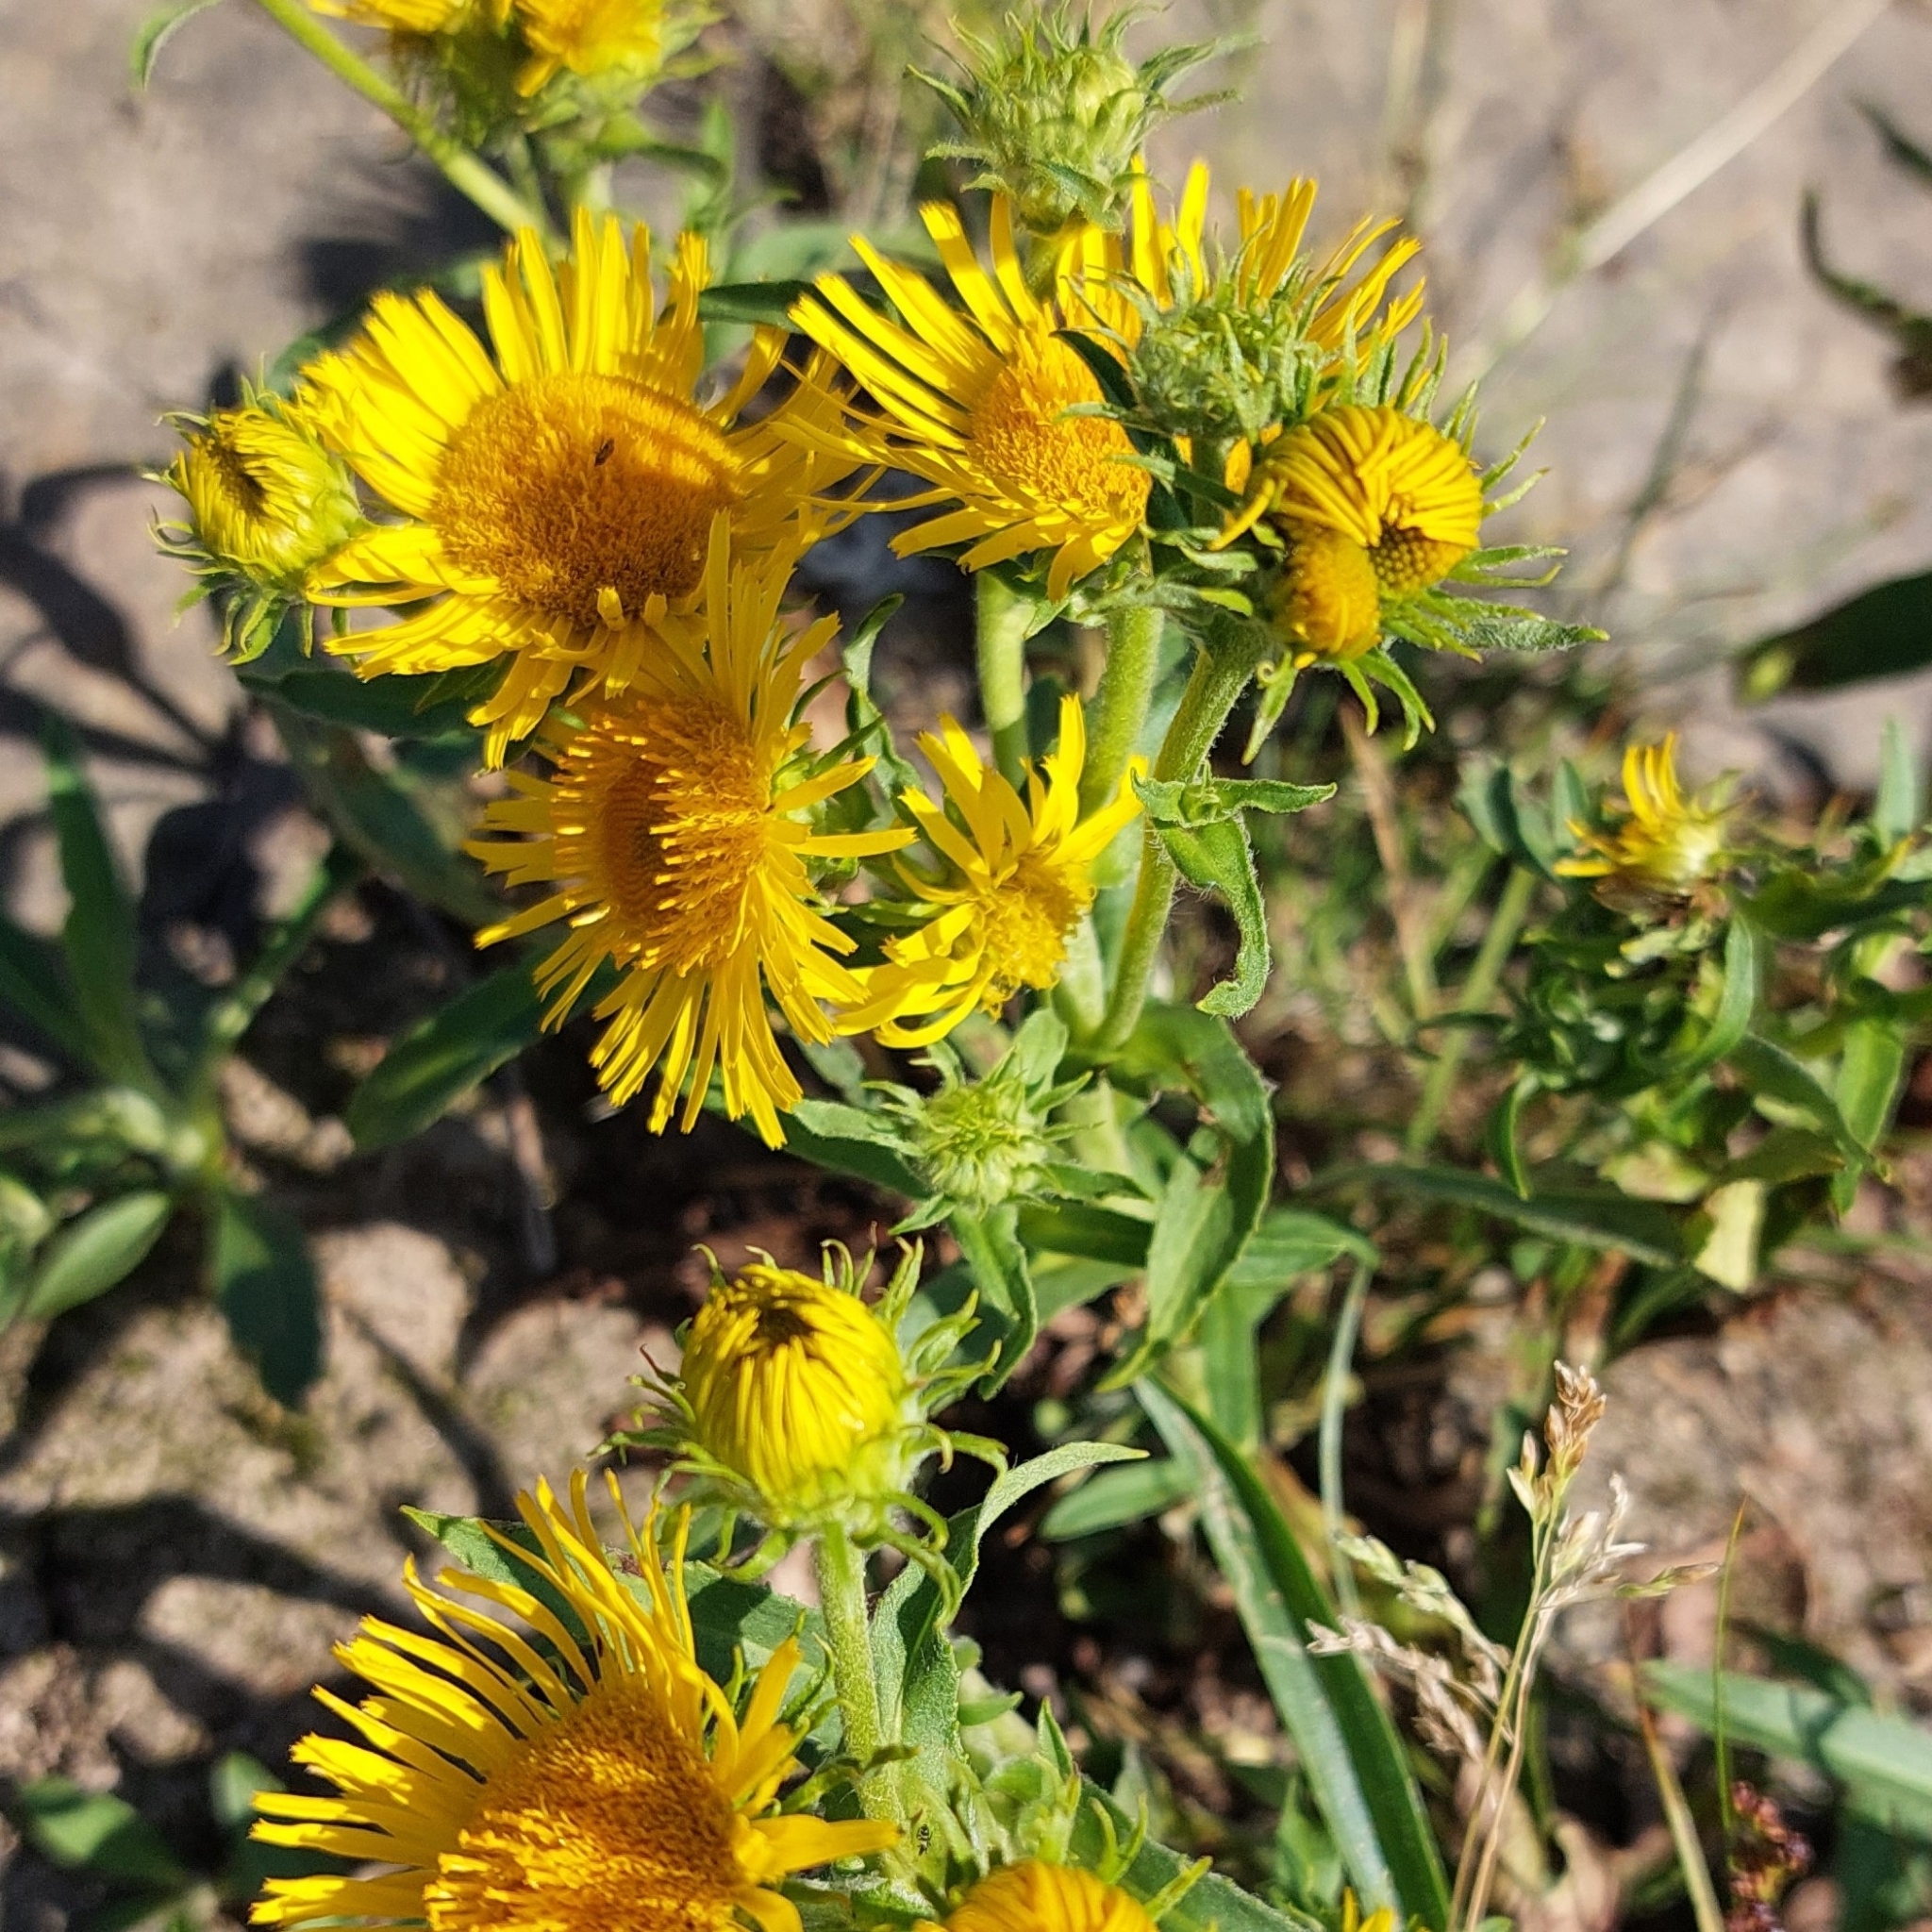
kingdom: Plantae
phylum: Tracheophyta
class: Magnoliopsida
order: Asterales
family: Asteraceae
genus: Pentanema
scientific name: Pentanema britannicum
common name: British elecampane
